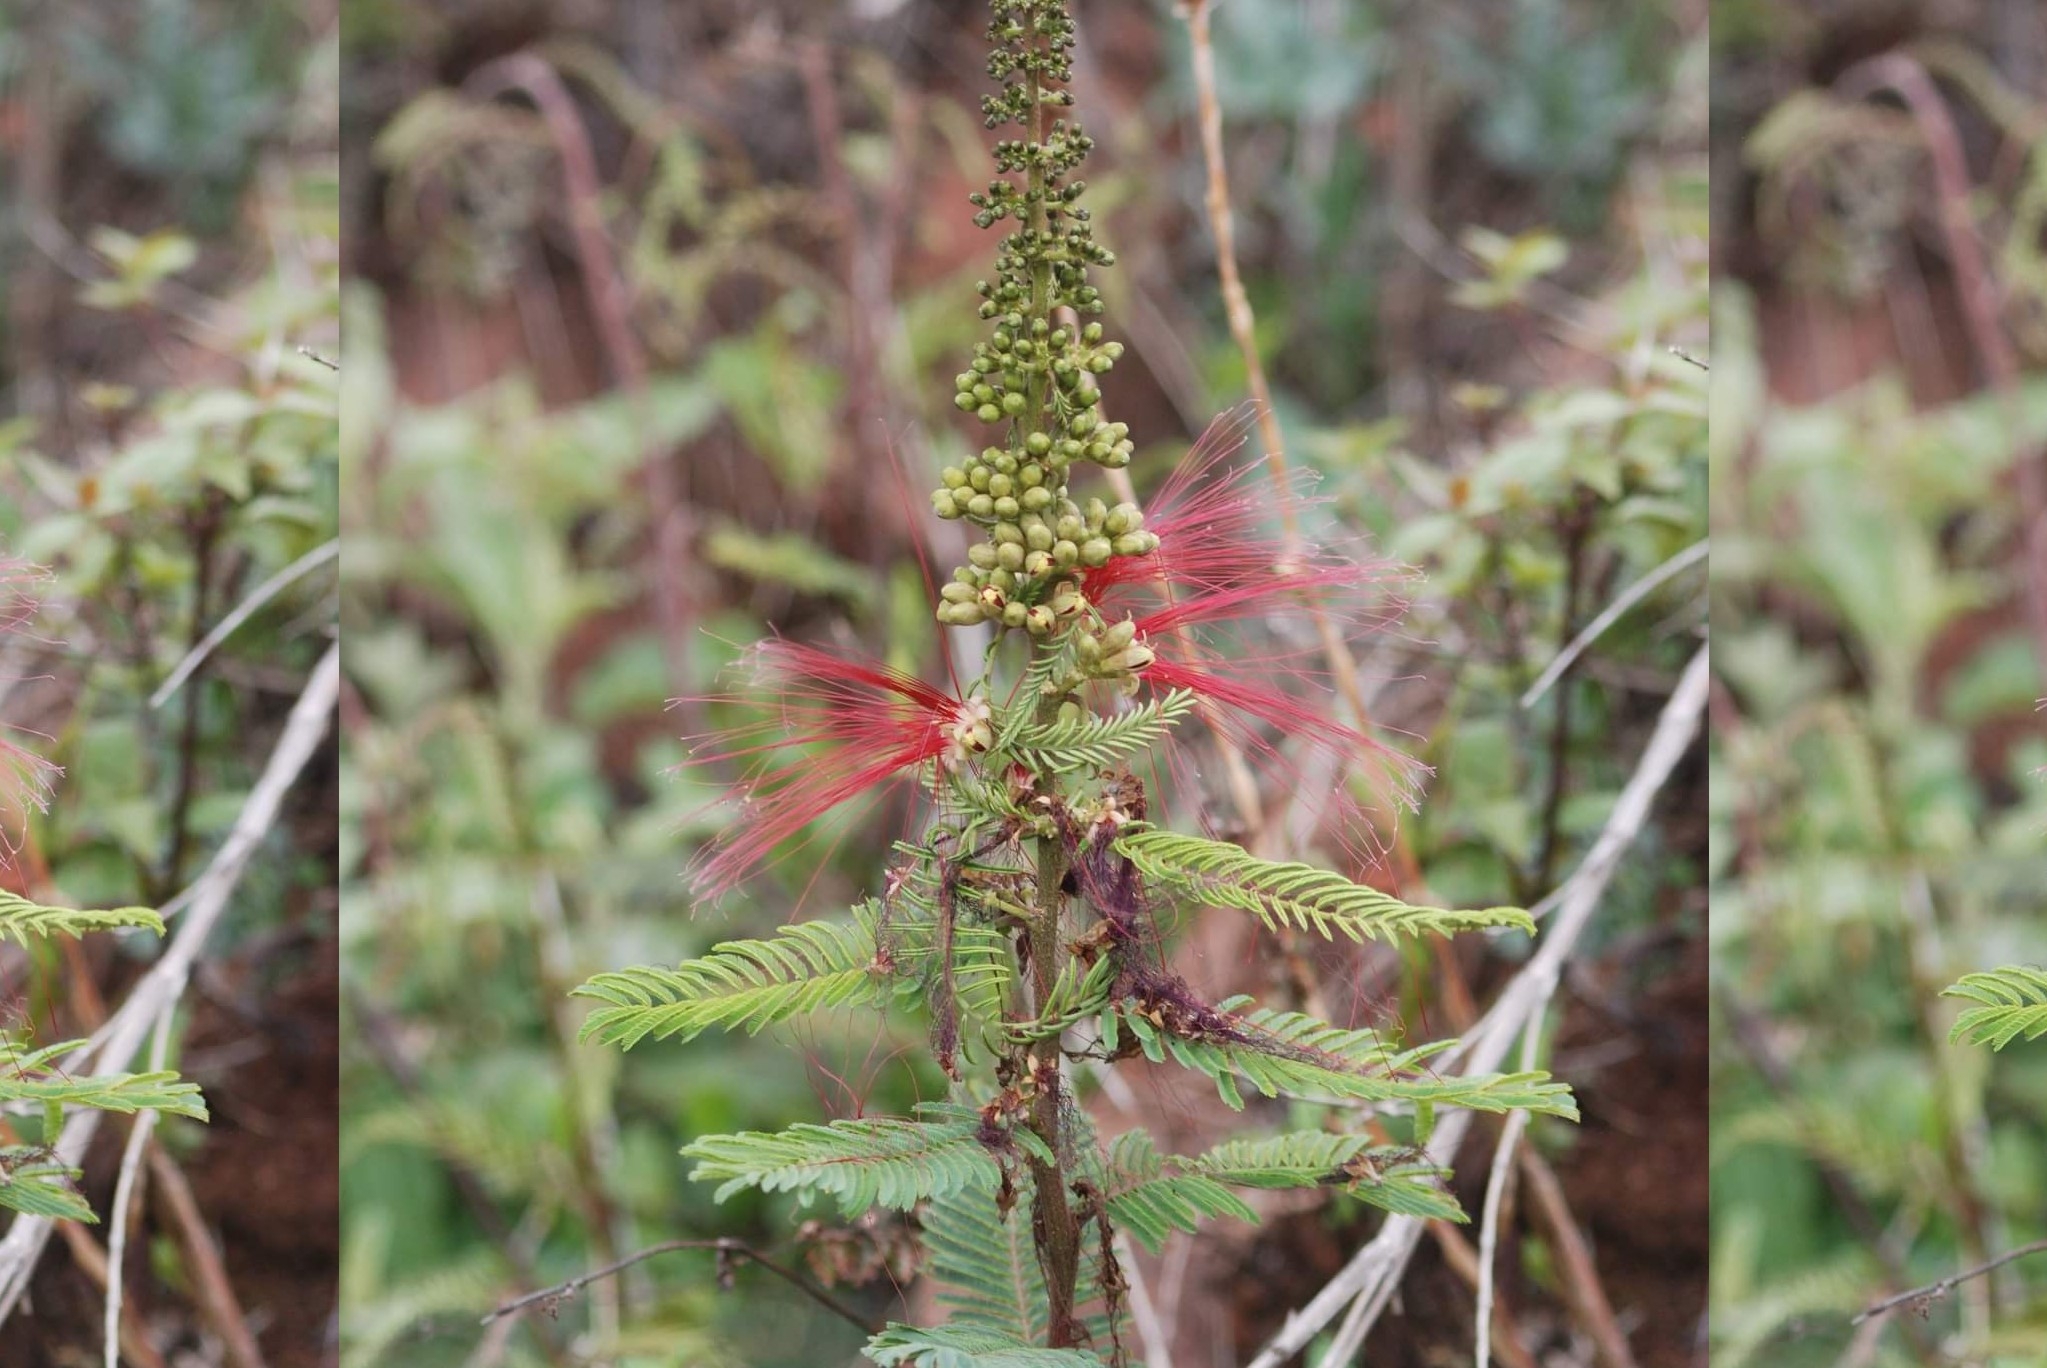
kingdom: Plantae
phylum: Tracheophyta
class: Magnoliopsida
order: Fabales
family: Fabaceae
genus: Calliandra
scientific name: Calliandra houstoniana
